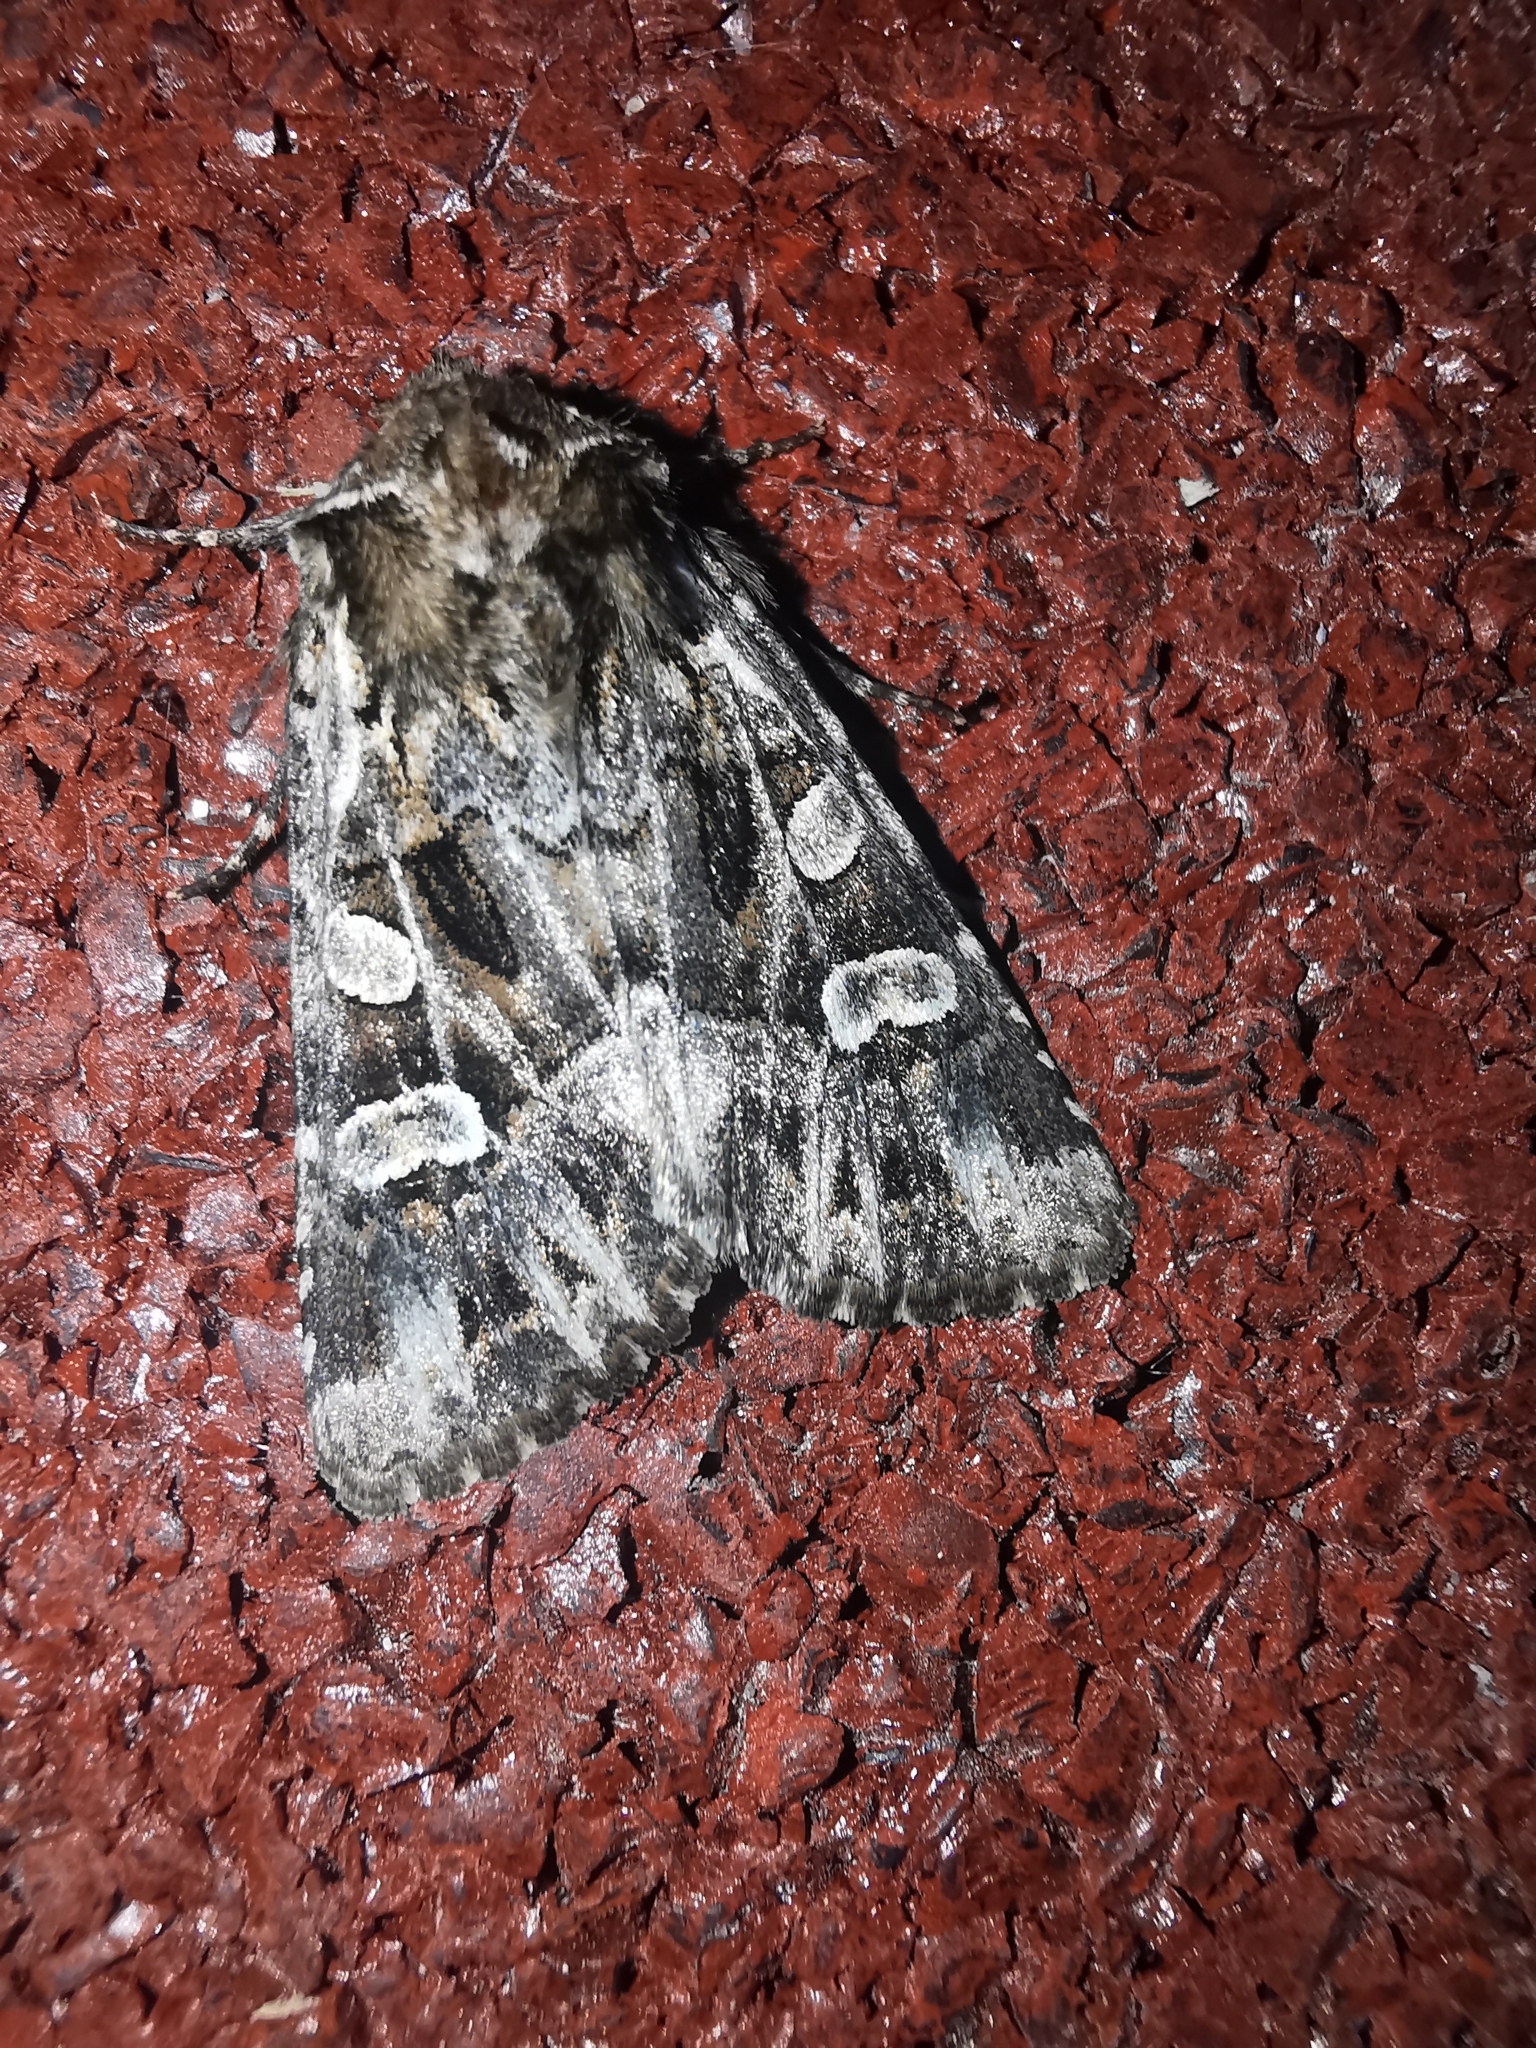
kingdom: Animalia
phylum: Arthropoda
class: Insecta
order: Lepidoptera
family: Noctuidae
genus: Pachetra
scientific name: Pachetra sagittigera
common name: Feathered ear
